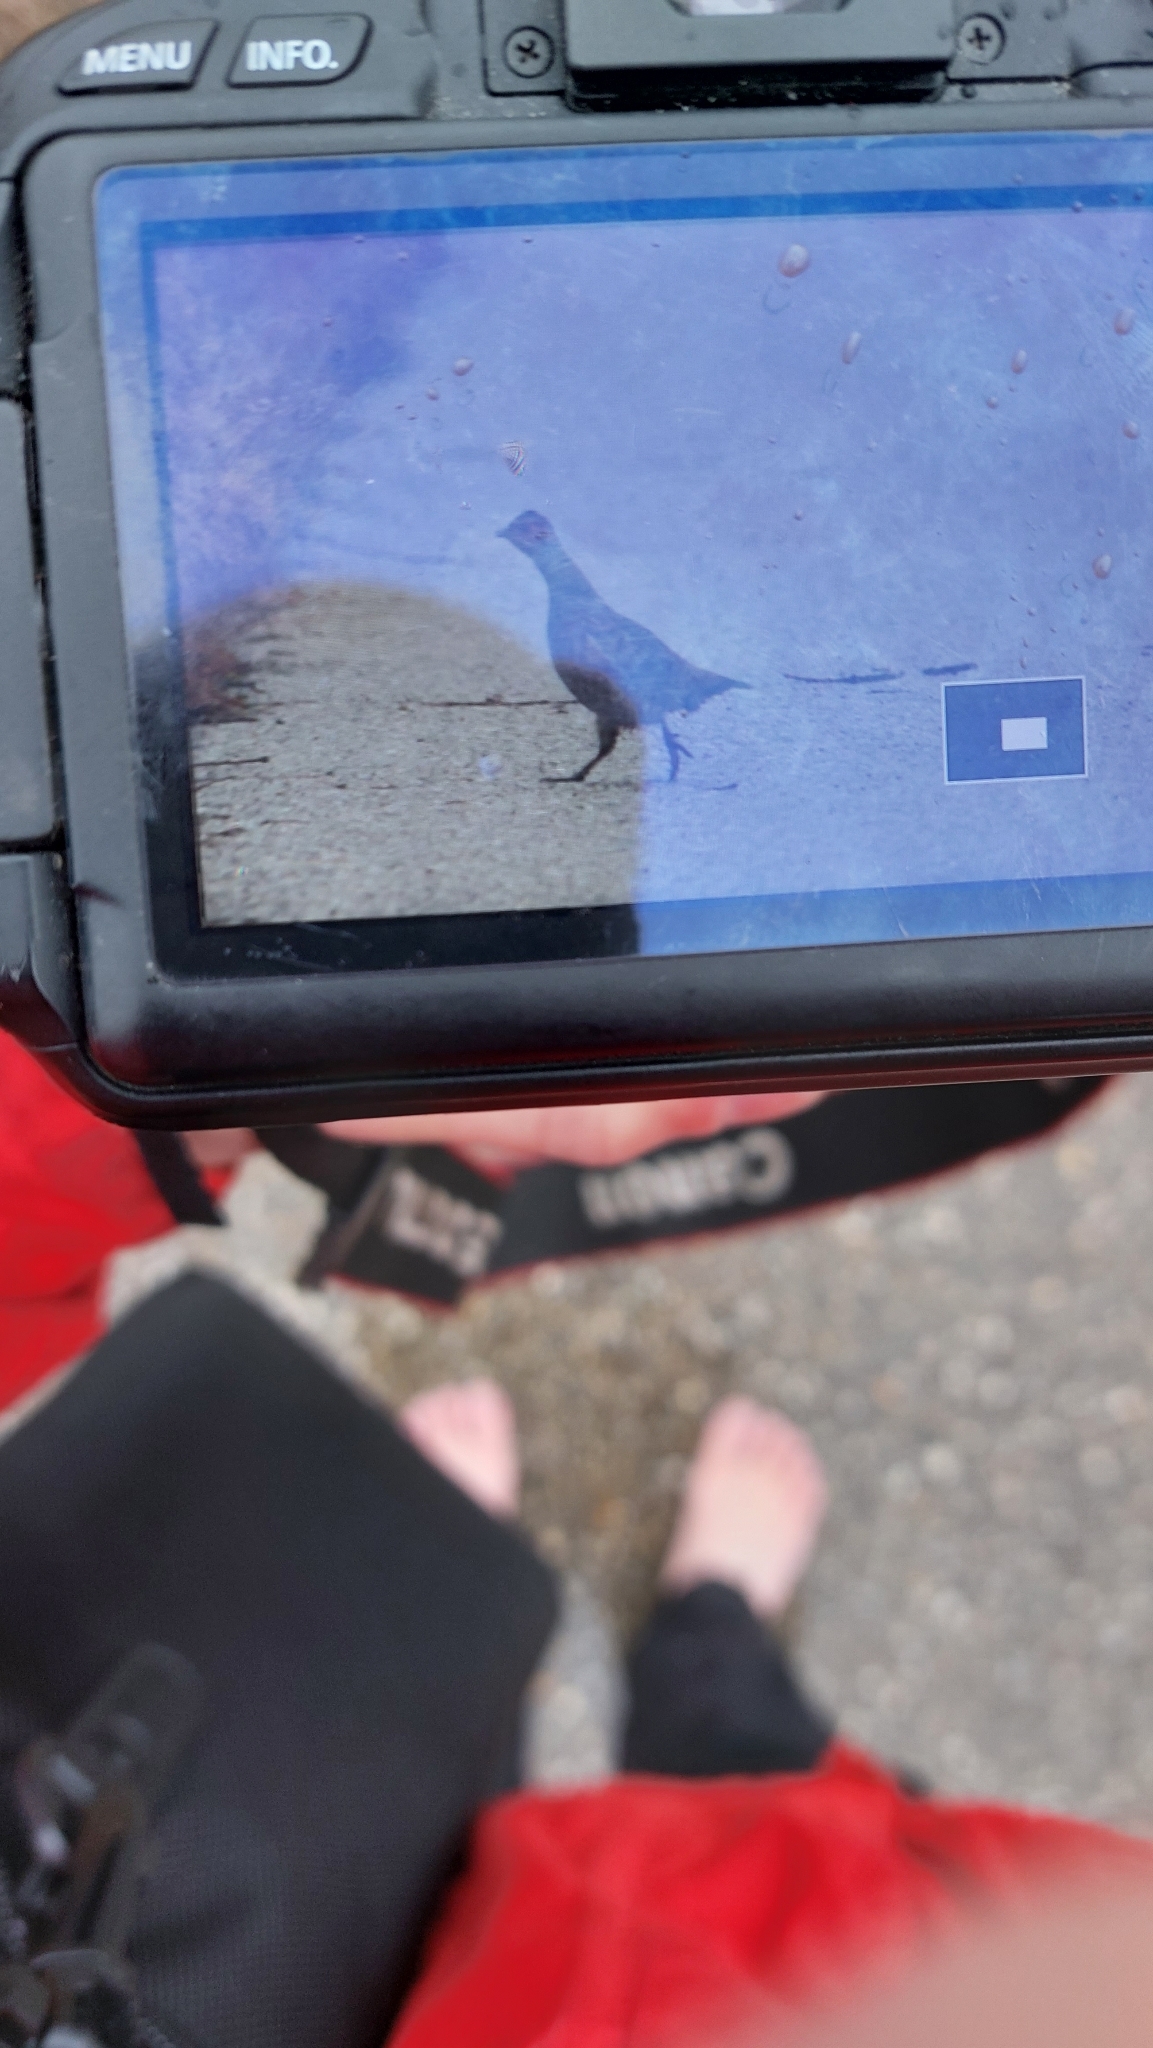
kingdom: Animalia
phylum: Chordata
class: Aves
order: Galliformes
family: Phasianidae
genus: Perdix
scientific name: Perdix perdix
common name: Grey partridge
